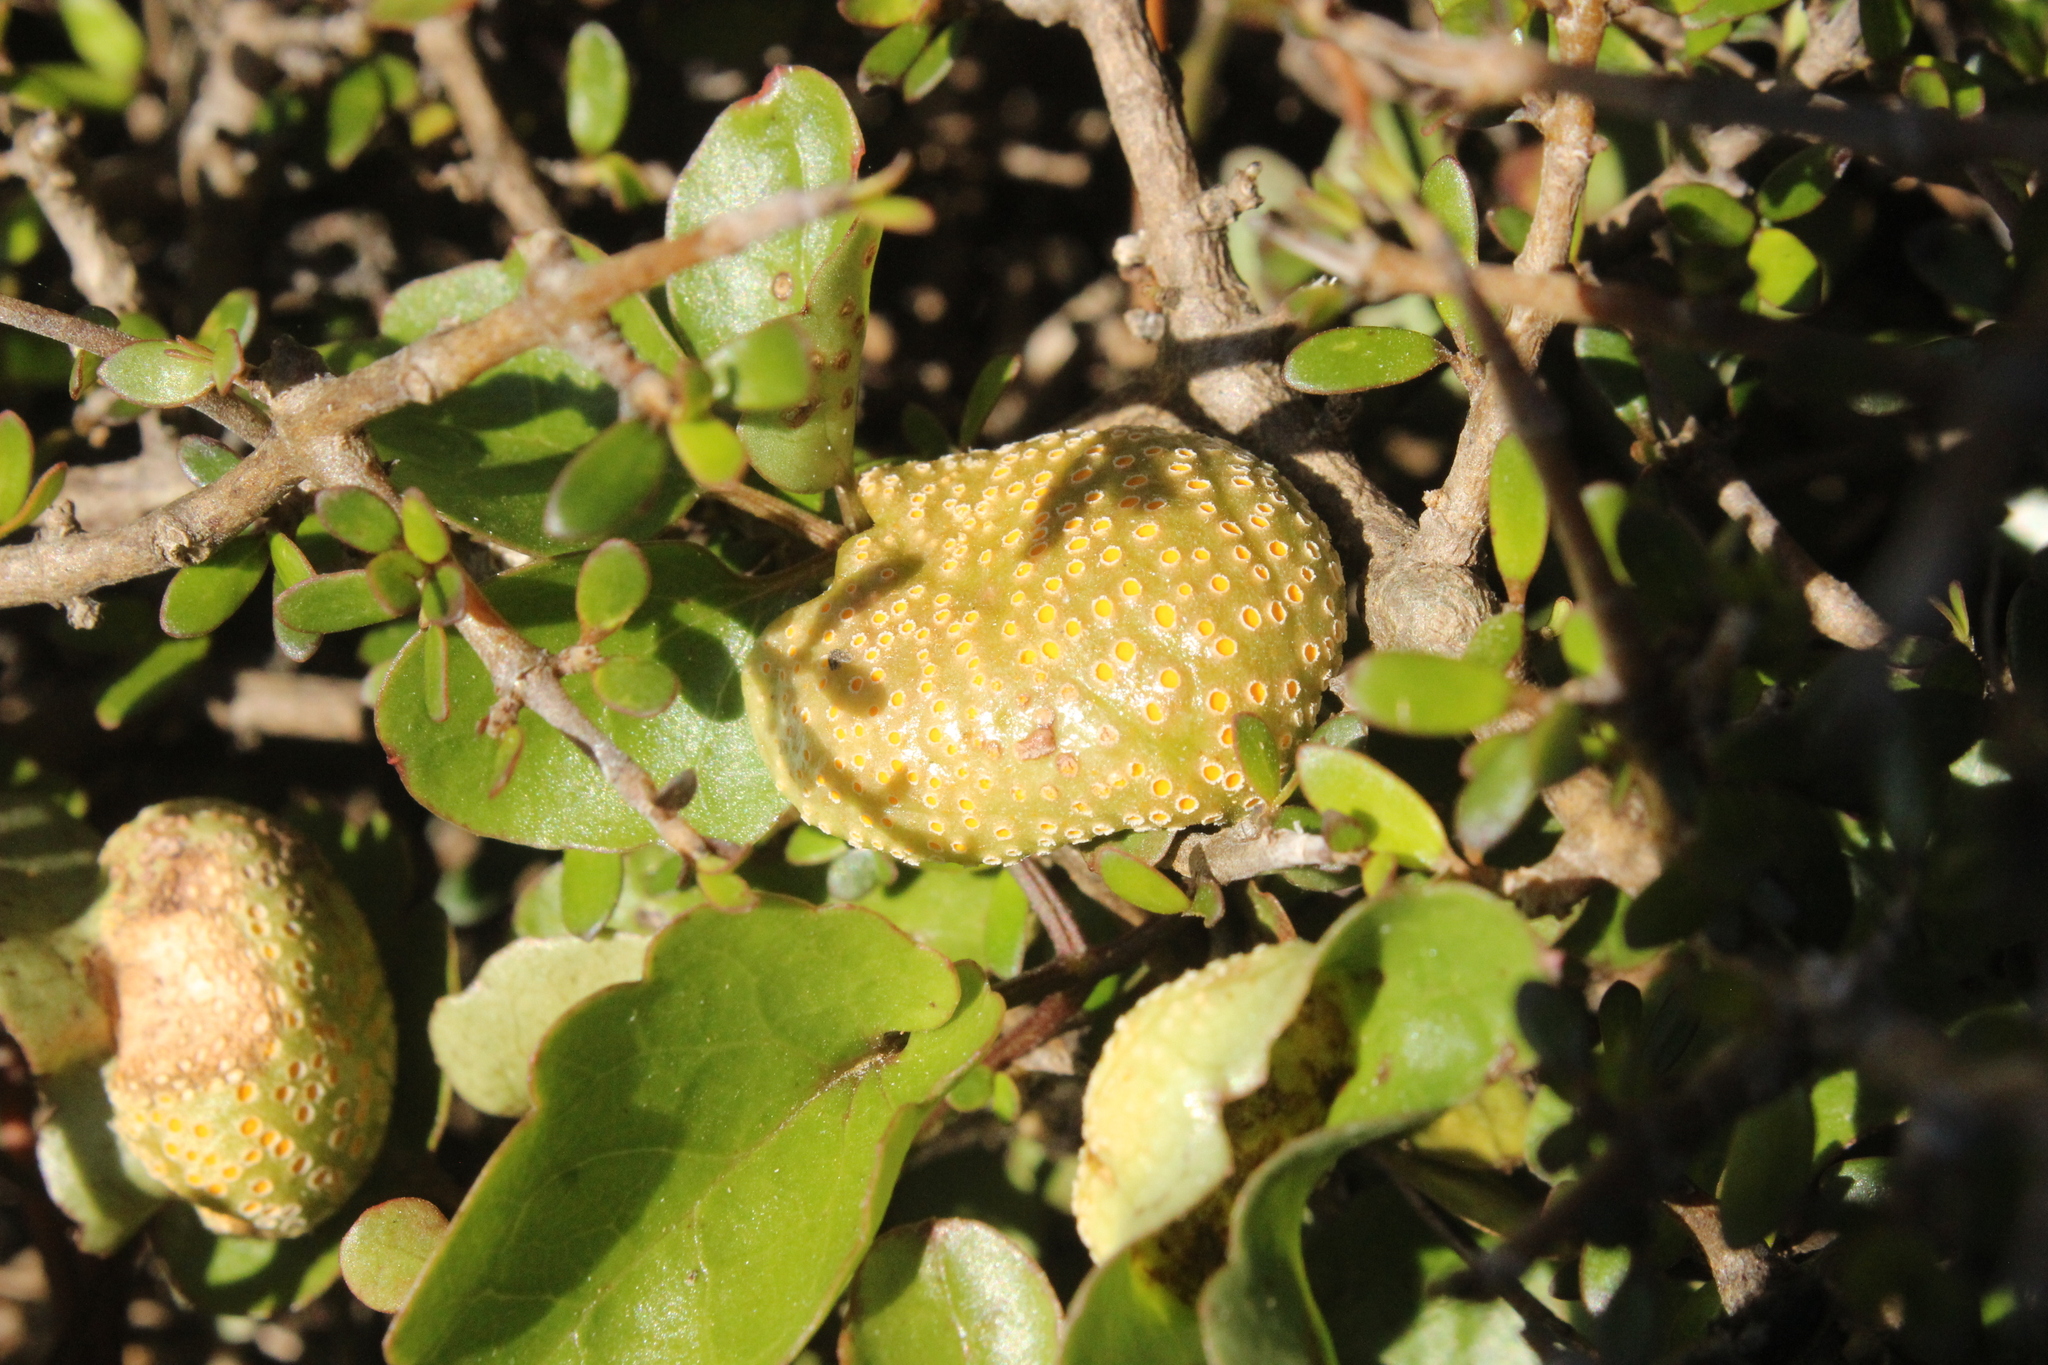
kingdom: Fungi
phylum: Basidiomycota
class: Pucciniomycetes
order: Pucciniales
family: Pucciniaceae
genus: Puccinia
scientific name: Puccinia otagensis
